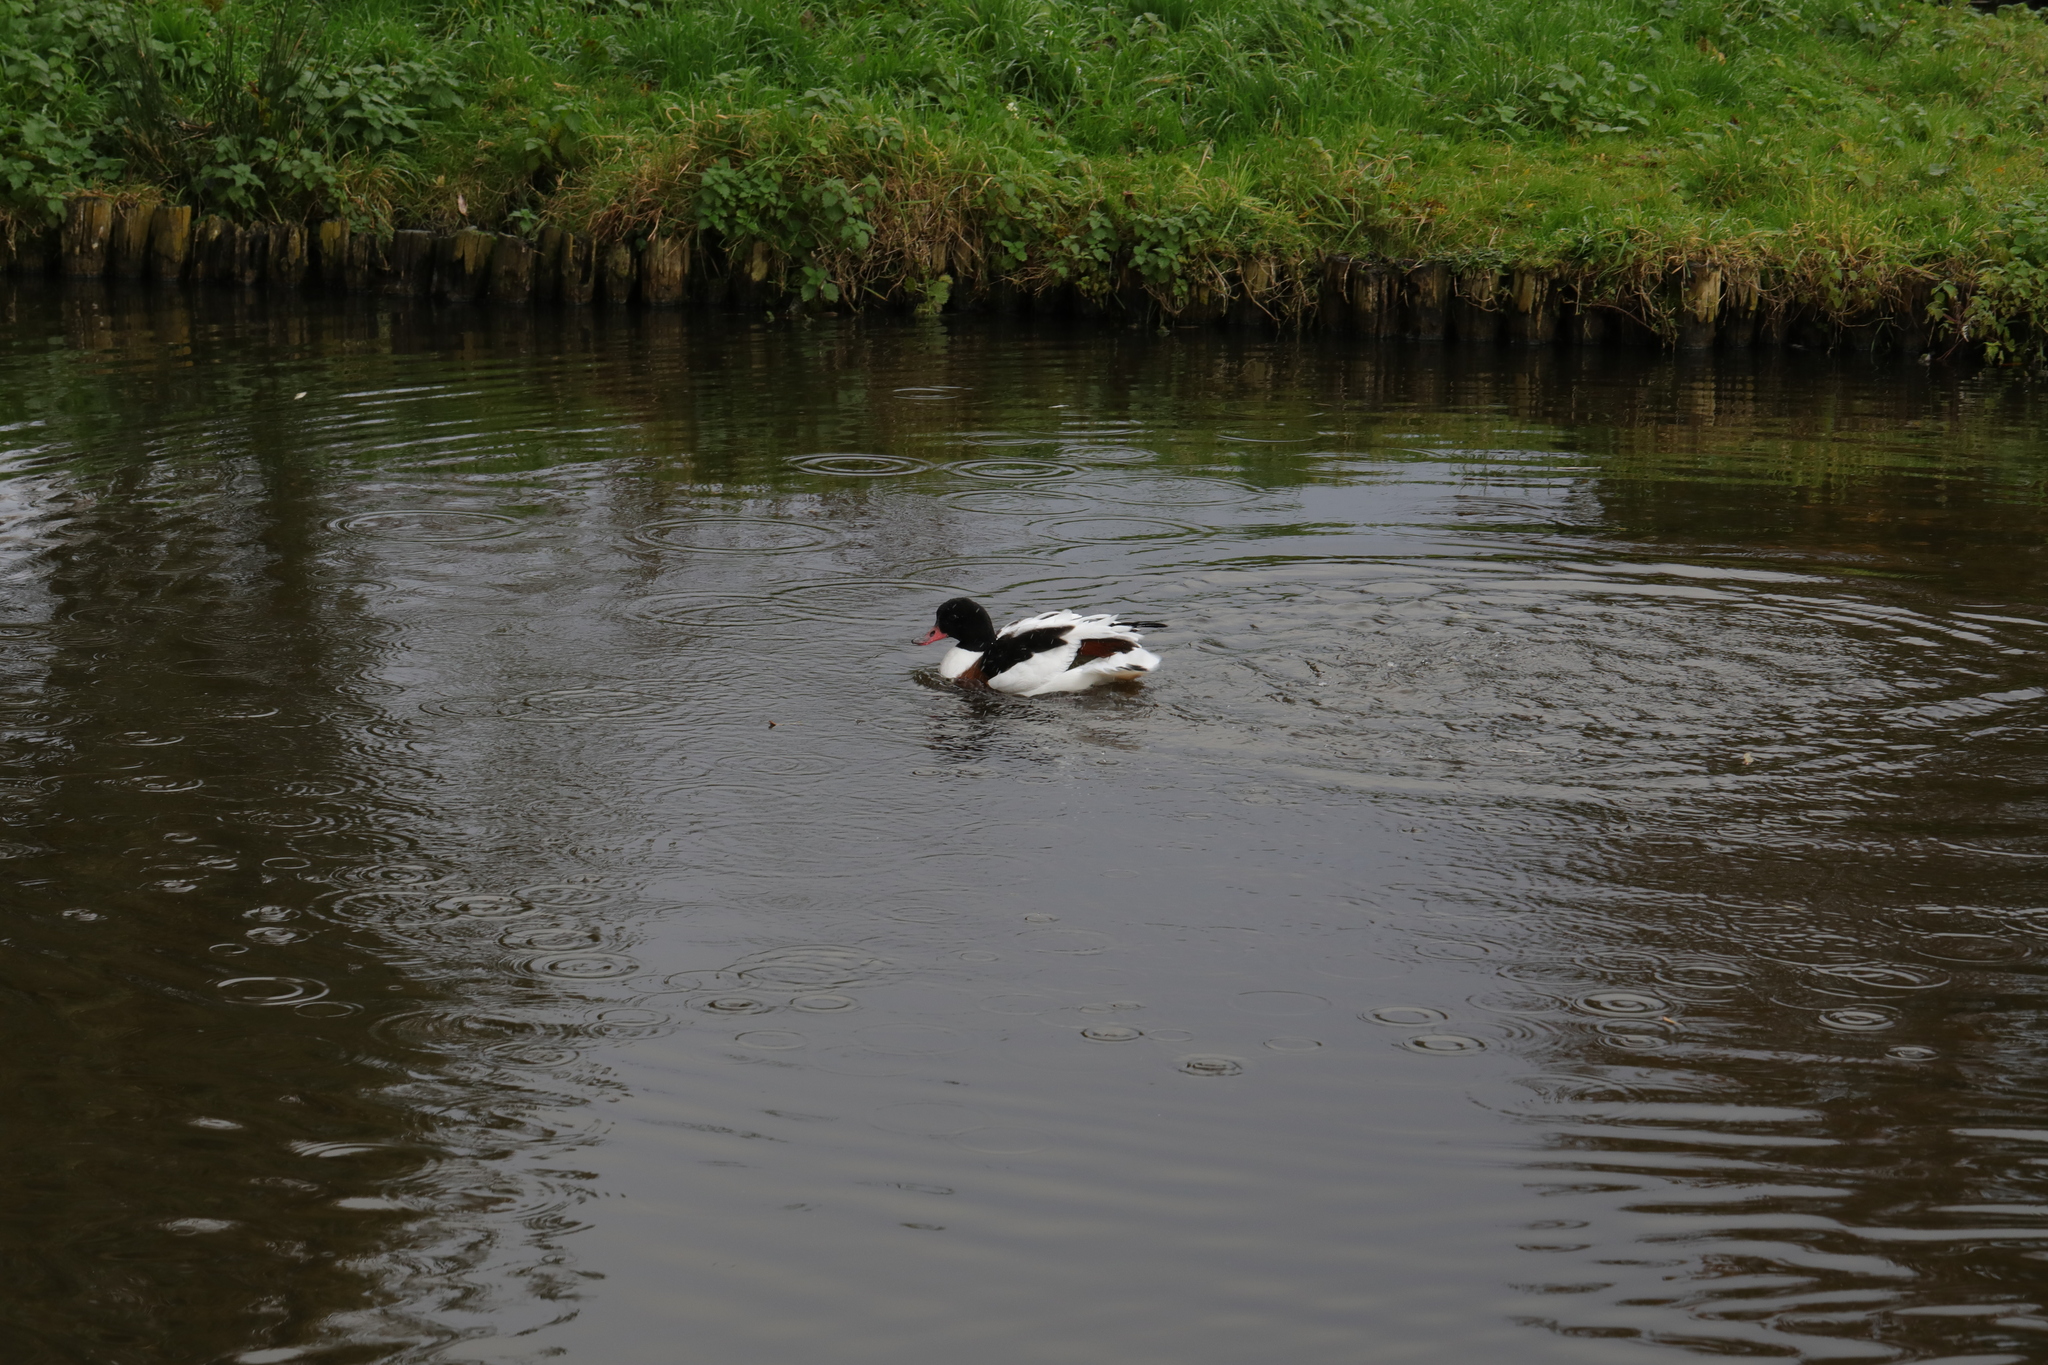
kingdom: Animalia
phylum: Chordata
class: Aves
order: Anseriformes
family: Anatidae
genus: Tadorna
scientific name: Tadorna tadorna
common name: Common shelduck
